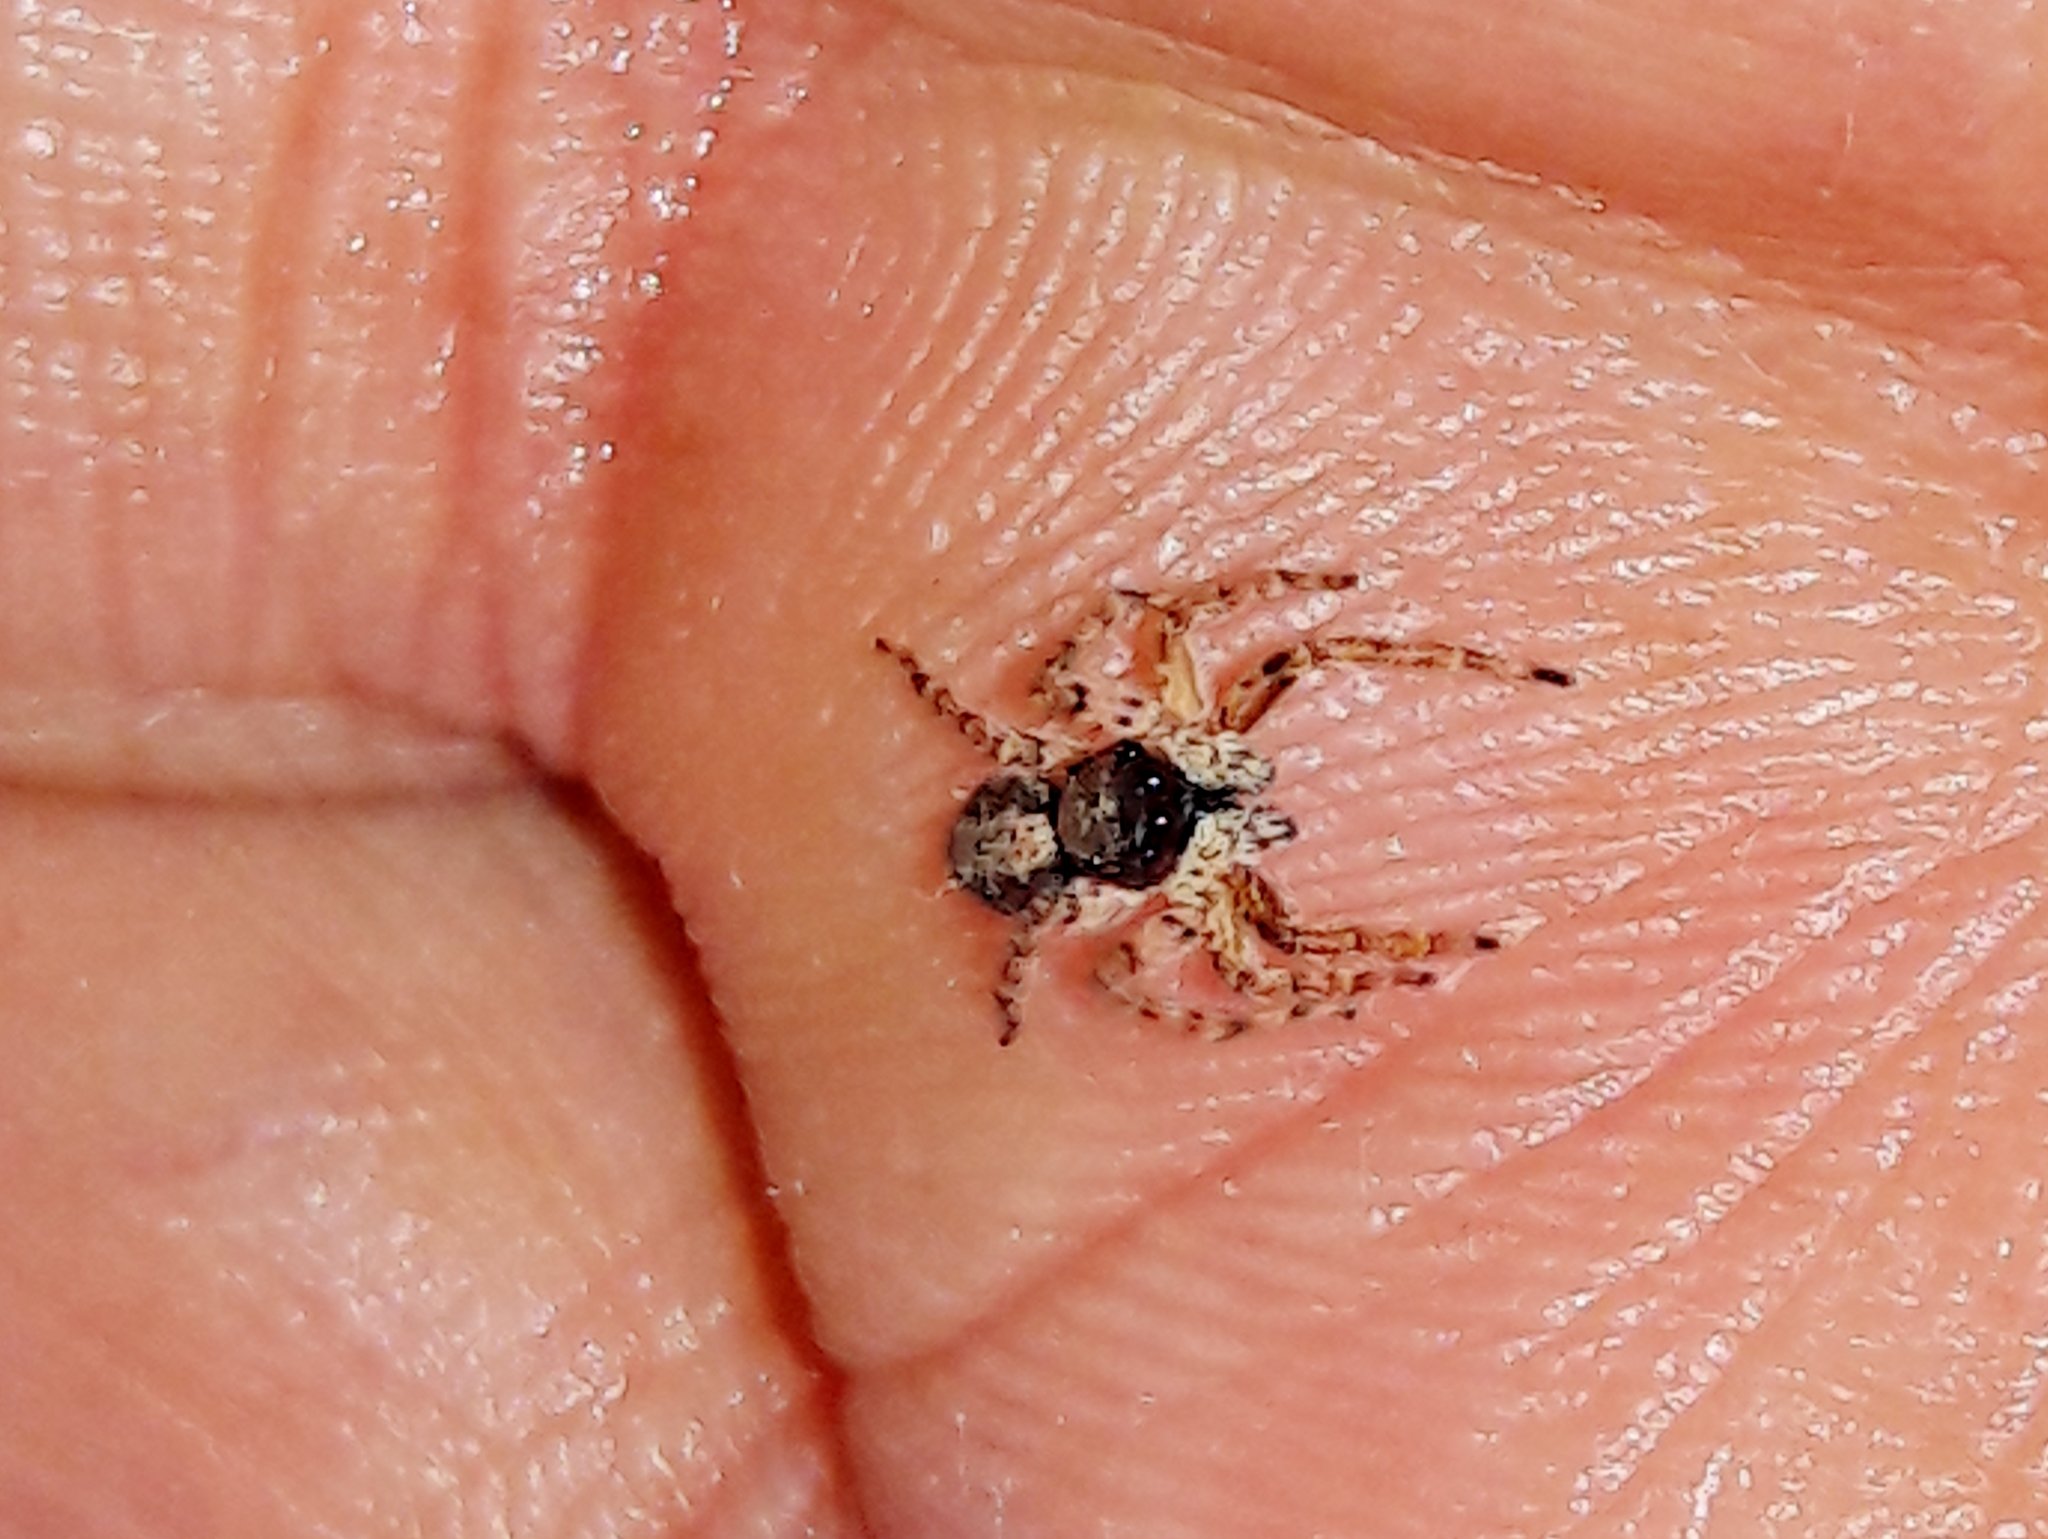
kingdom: Animalia
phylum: Arthropoda
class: Arachnida
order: Araneae
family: Salticidae
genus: Marma
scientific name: Marma nigritarsis
